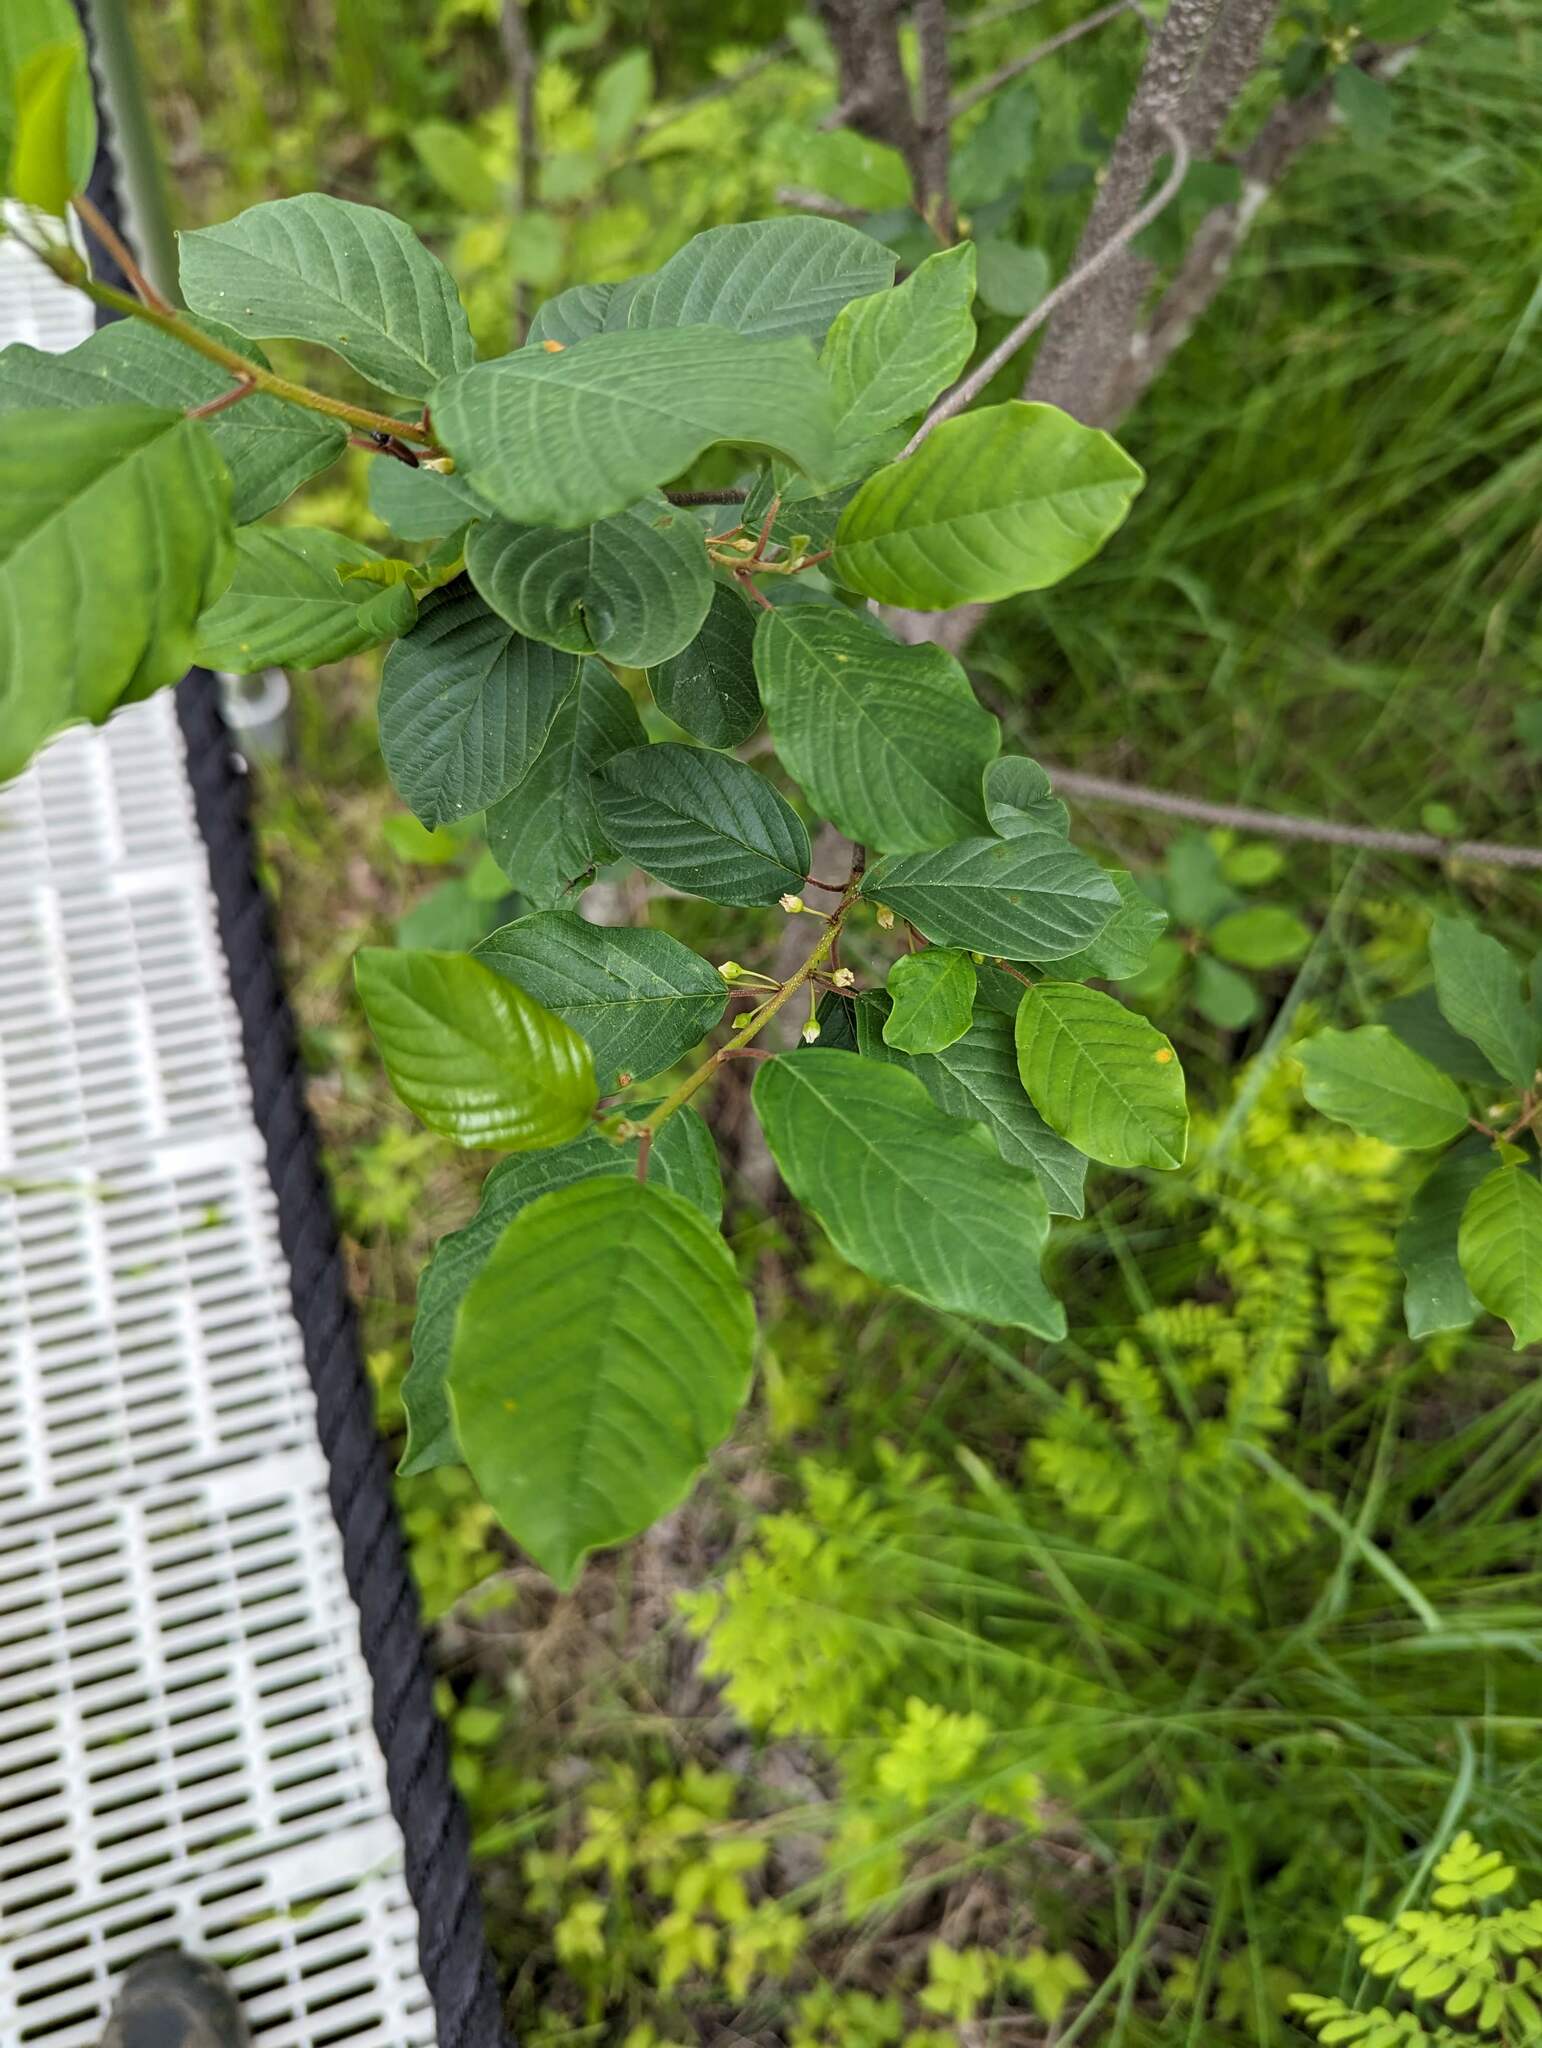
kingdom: Plantae
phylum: Tracheophyta
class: Magnoliopsida
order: Rosales
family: Rhamnaceae
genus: Frangula
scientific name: Frangula alnus
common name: Alder buckthorn
